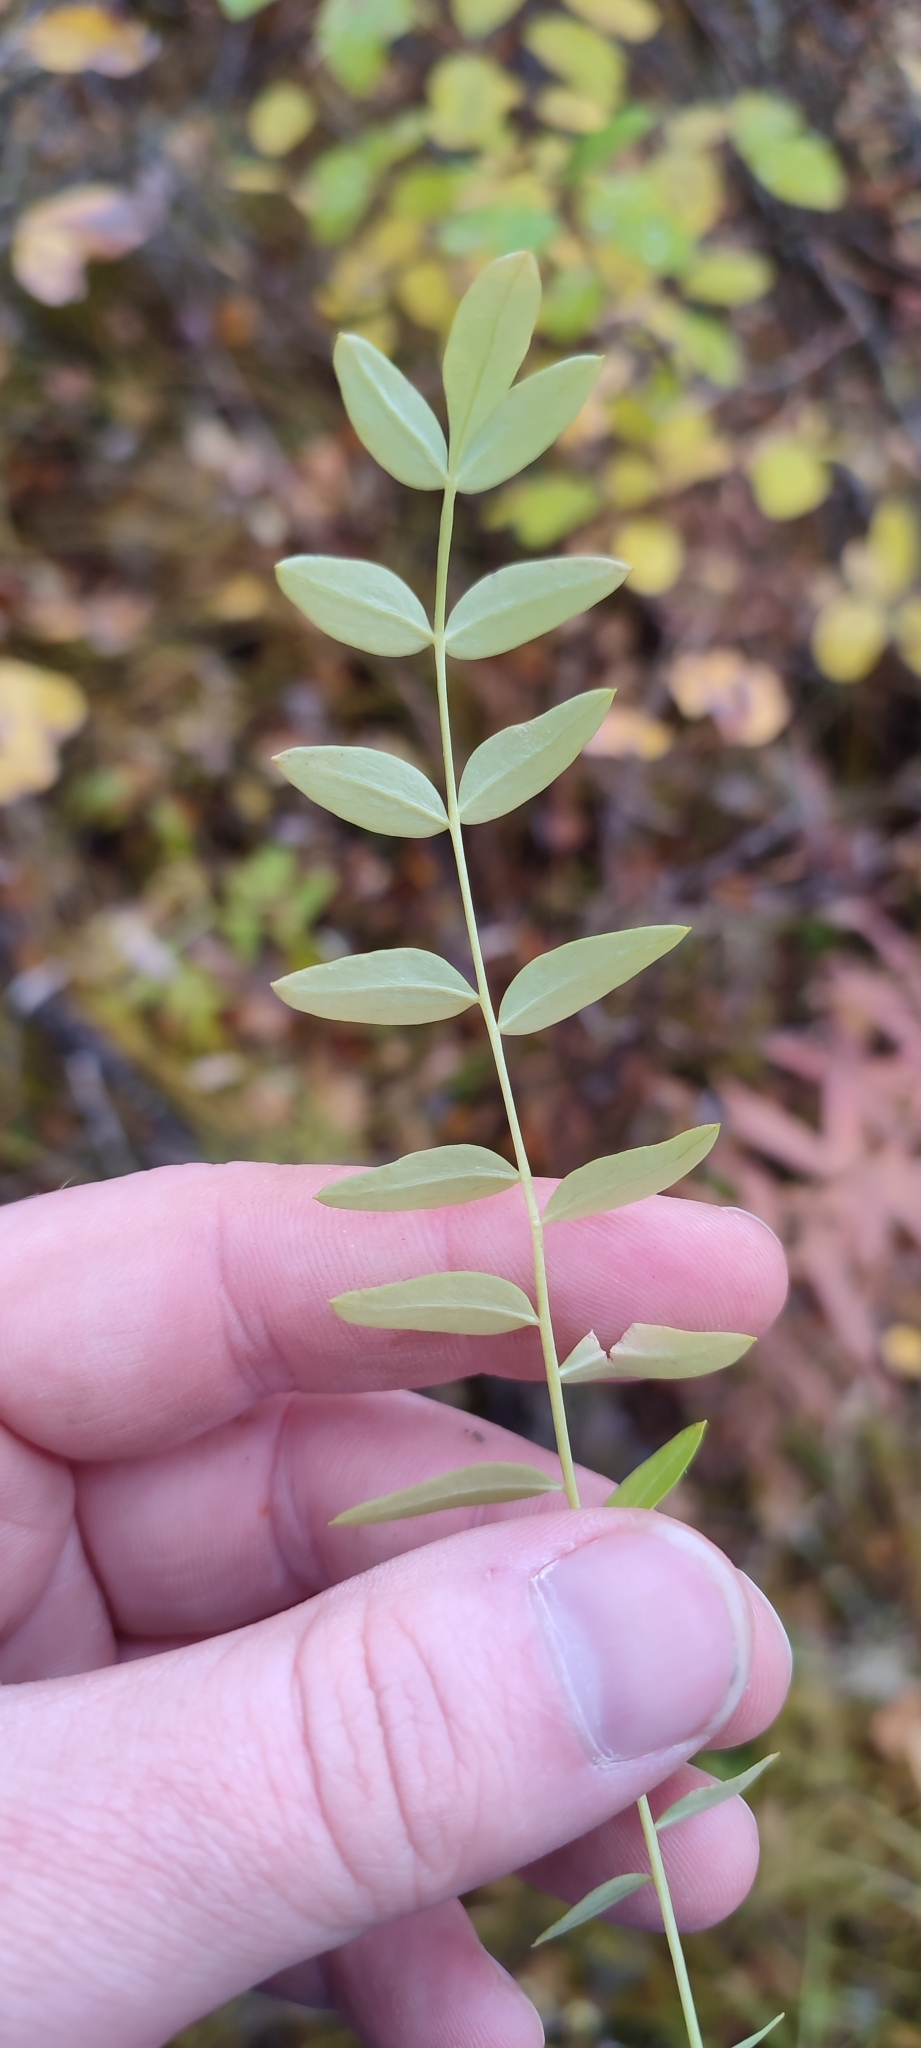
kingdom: Plantae
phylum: Tracheophyta
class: Magnoliopsida
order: Ericales
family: Polemoniaceae
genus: Polemonium
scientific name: Polemonium acutiflorum
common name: Tall jacob's-ladder
